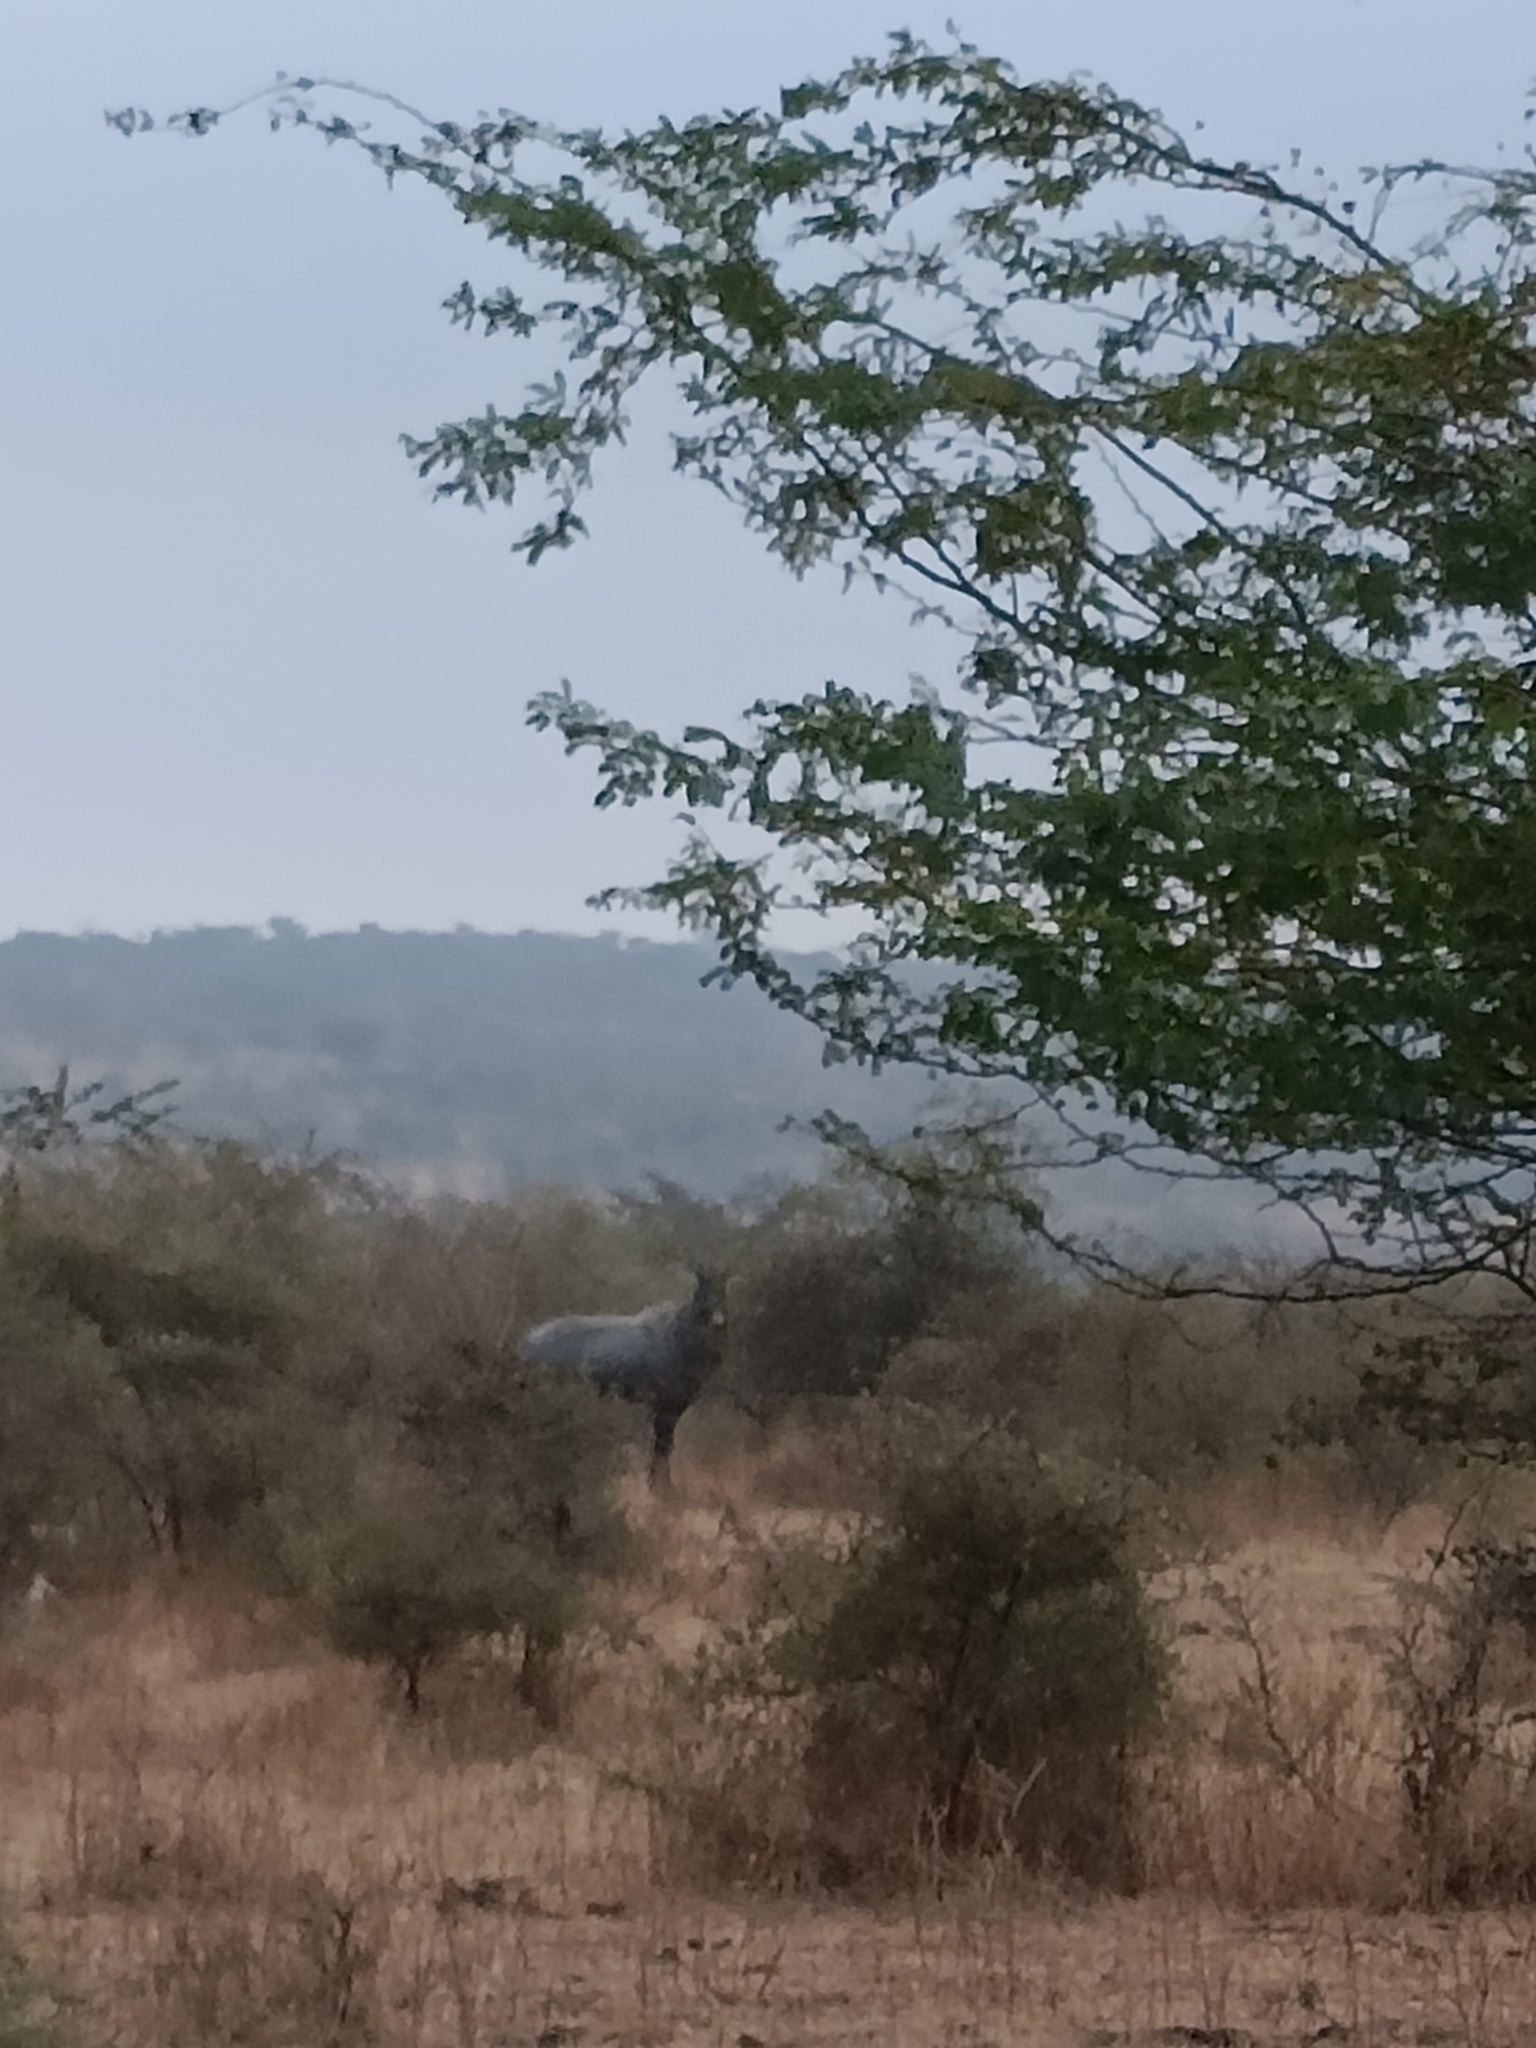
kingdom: Animalia
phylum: Chordata
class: Mammalia
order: Artiodactyla
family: Bovidae
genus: Boselaphus
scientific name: Boselaphus tragocamelus
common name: Nilgai
